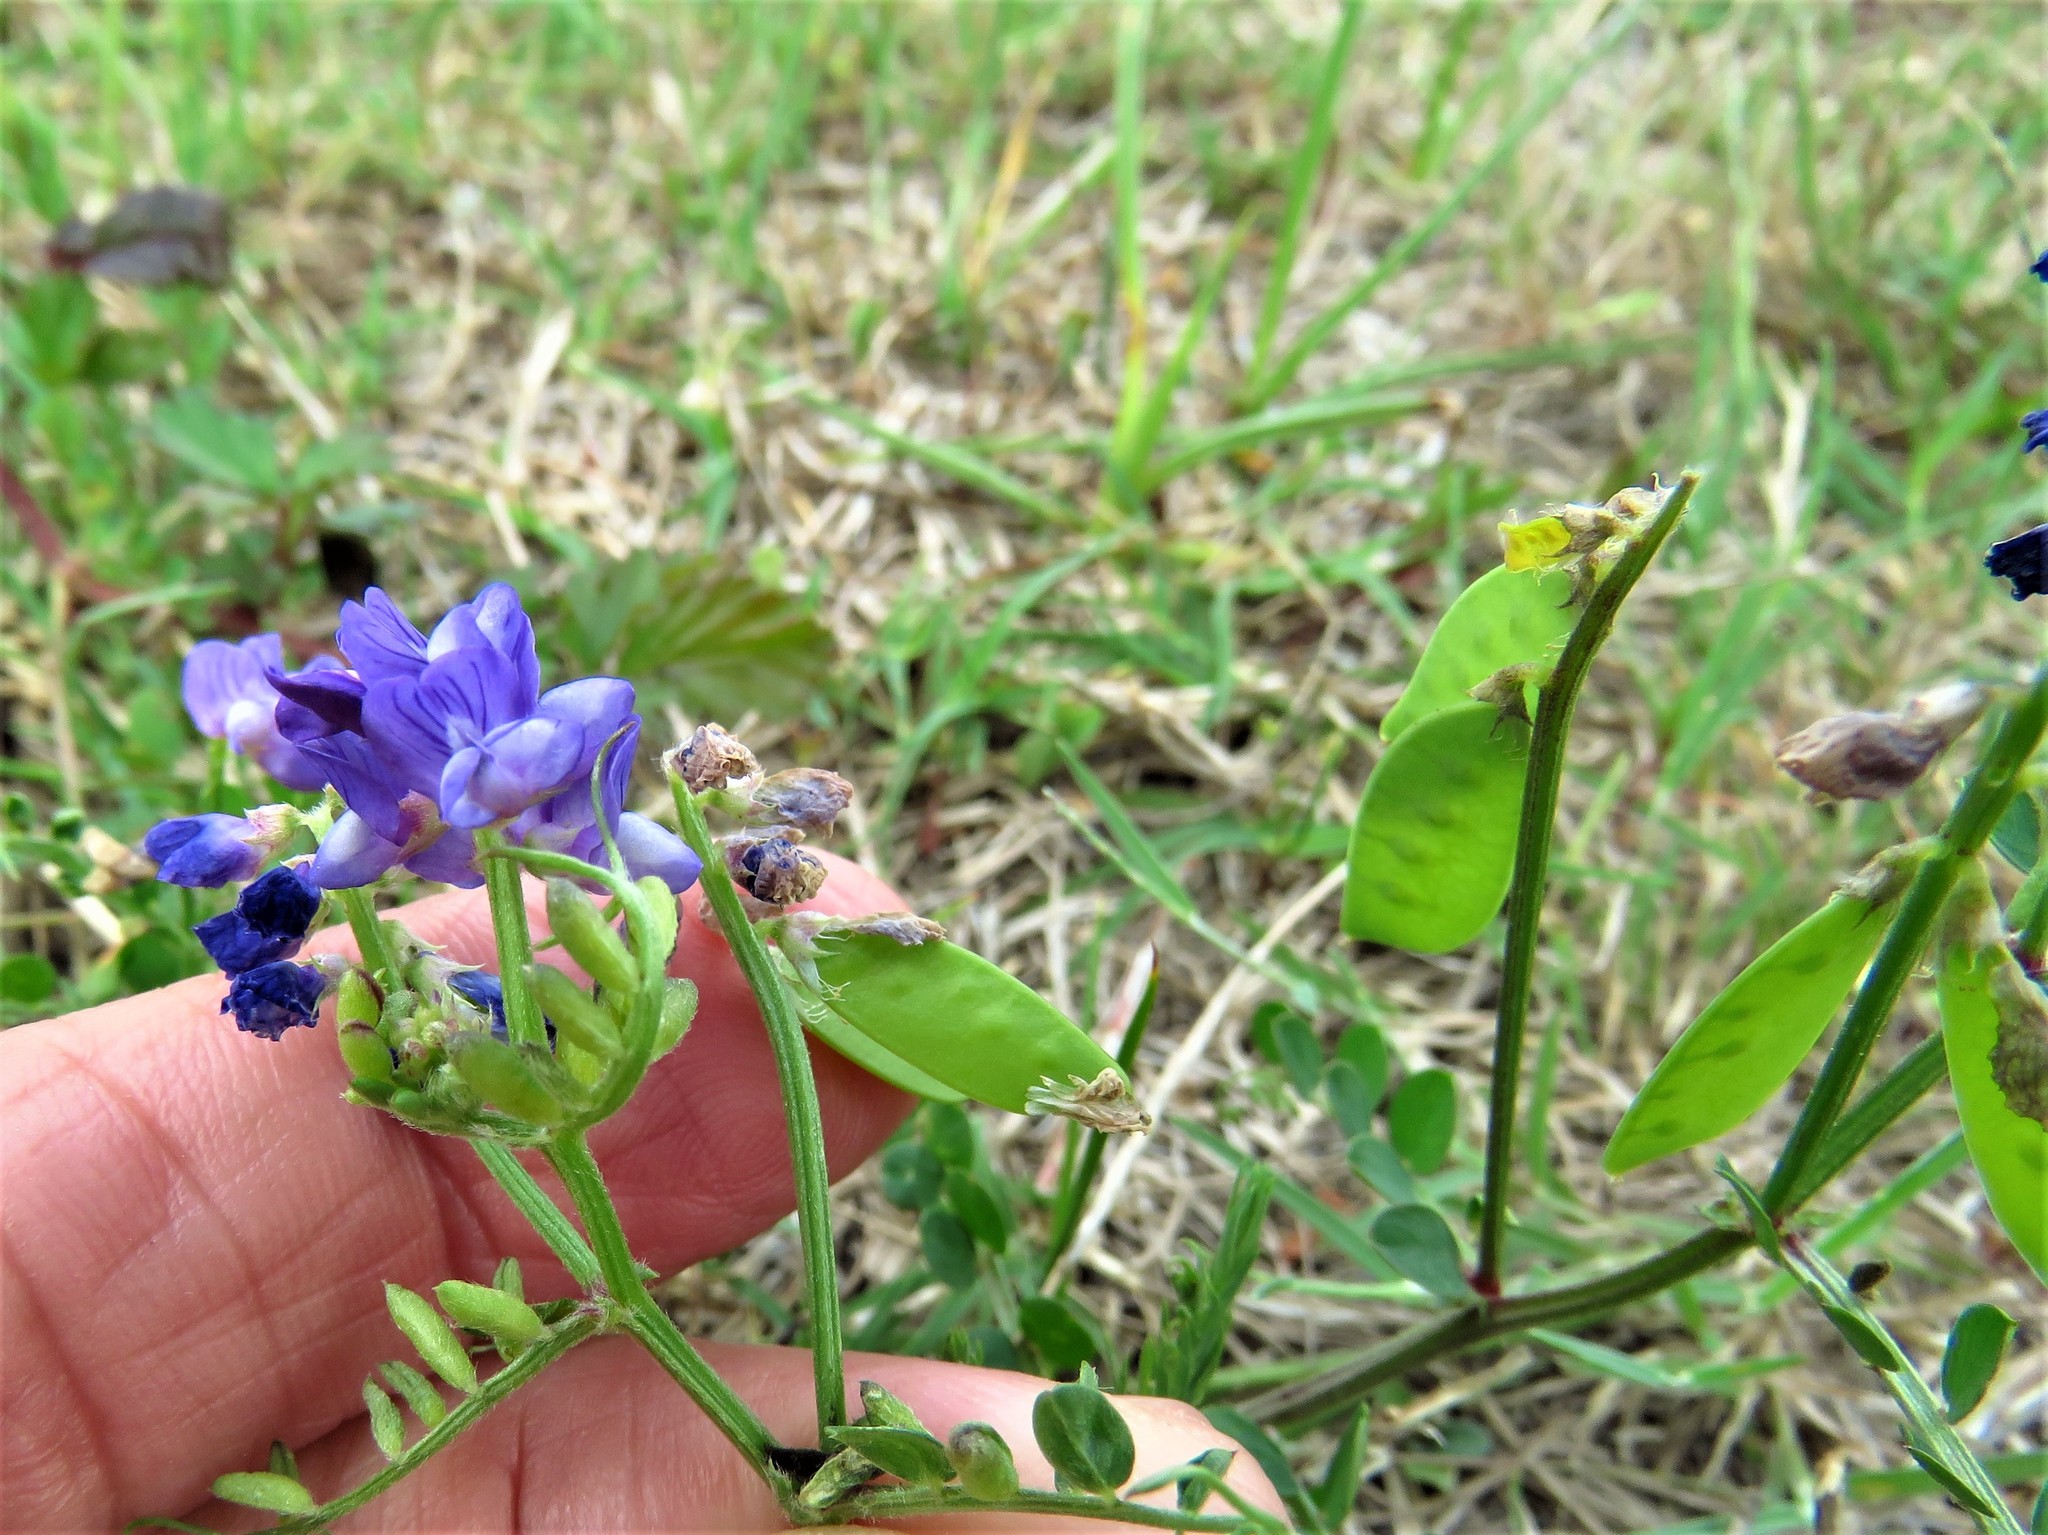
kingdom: Plantae
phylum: Tracheophyta
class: Magnoliopsida
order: Fabales
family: Fabaceae
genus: Vicia
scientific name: Vicia ludoviciana
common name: Louisiana vetch
